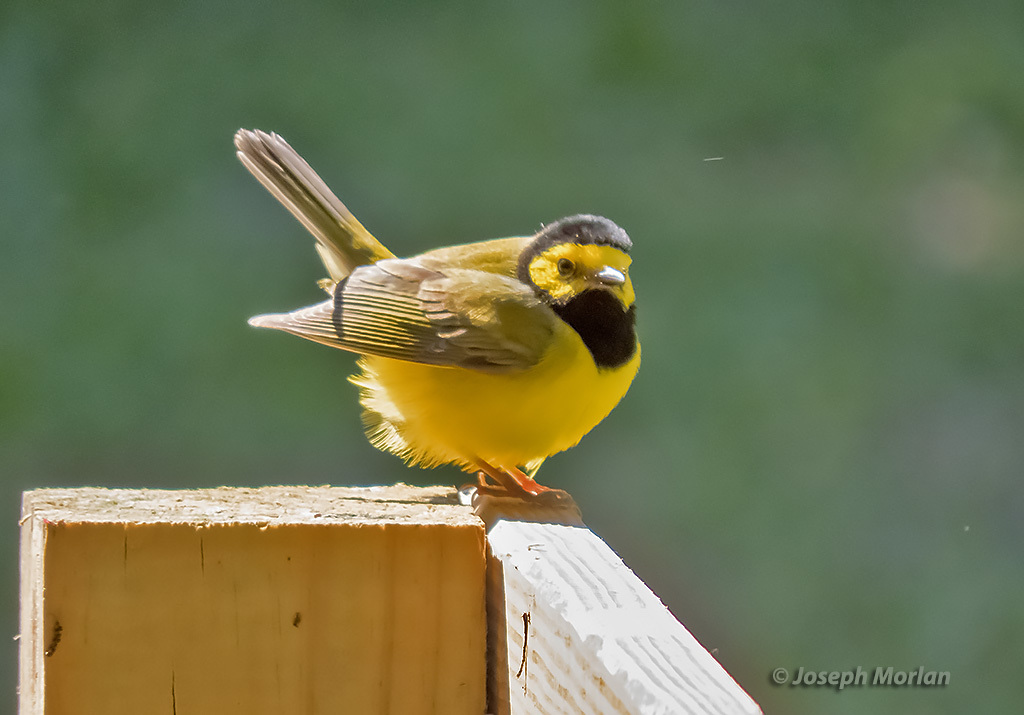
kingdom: Animalia
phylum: Chordata
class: Aves
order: Passeriformes
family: Parulidae
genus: Setophaga
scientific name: Setophaga citrina
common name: Hooded warbler
